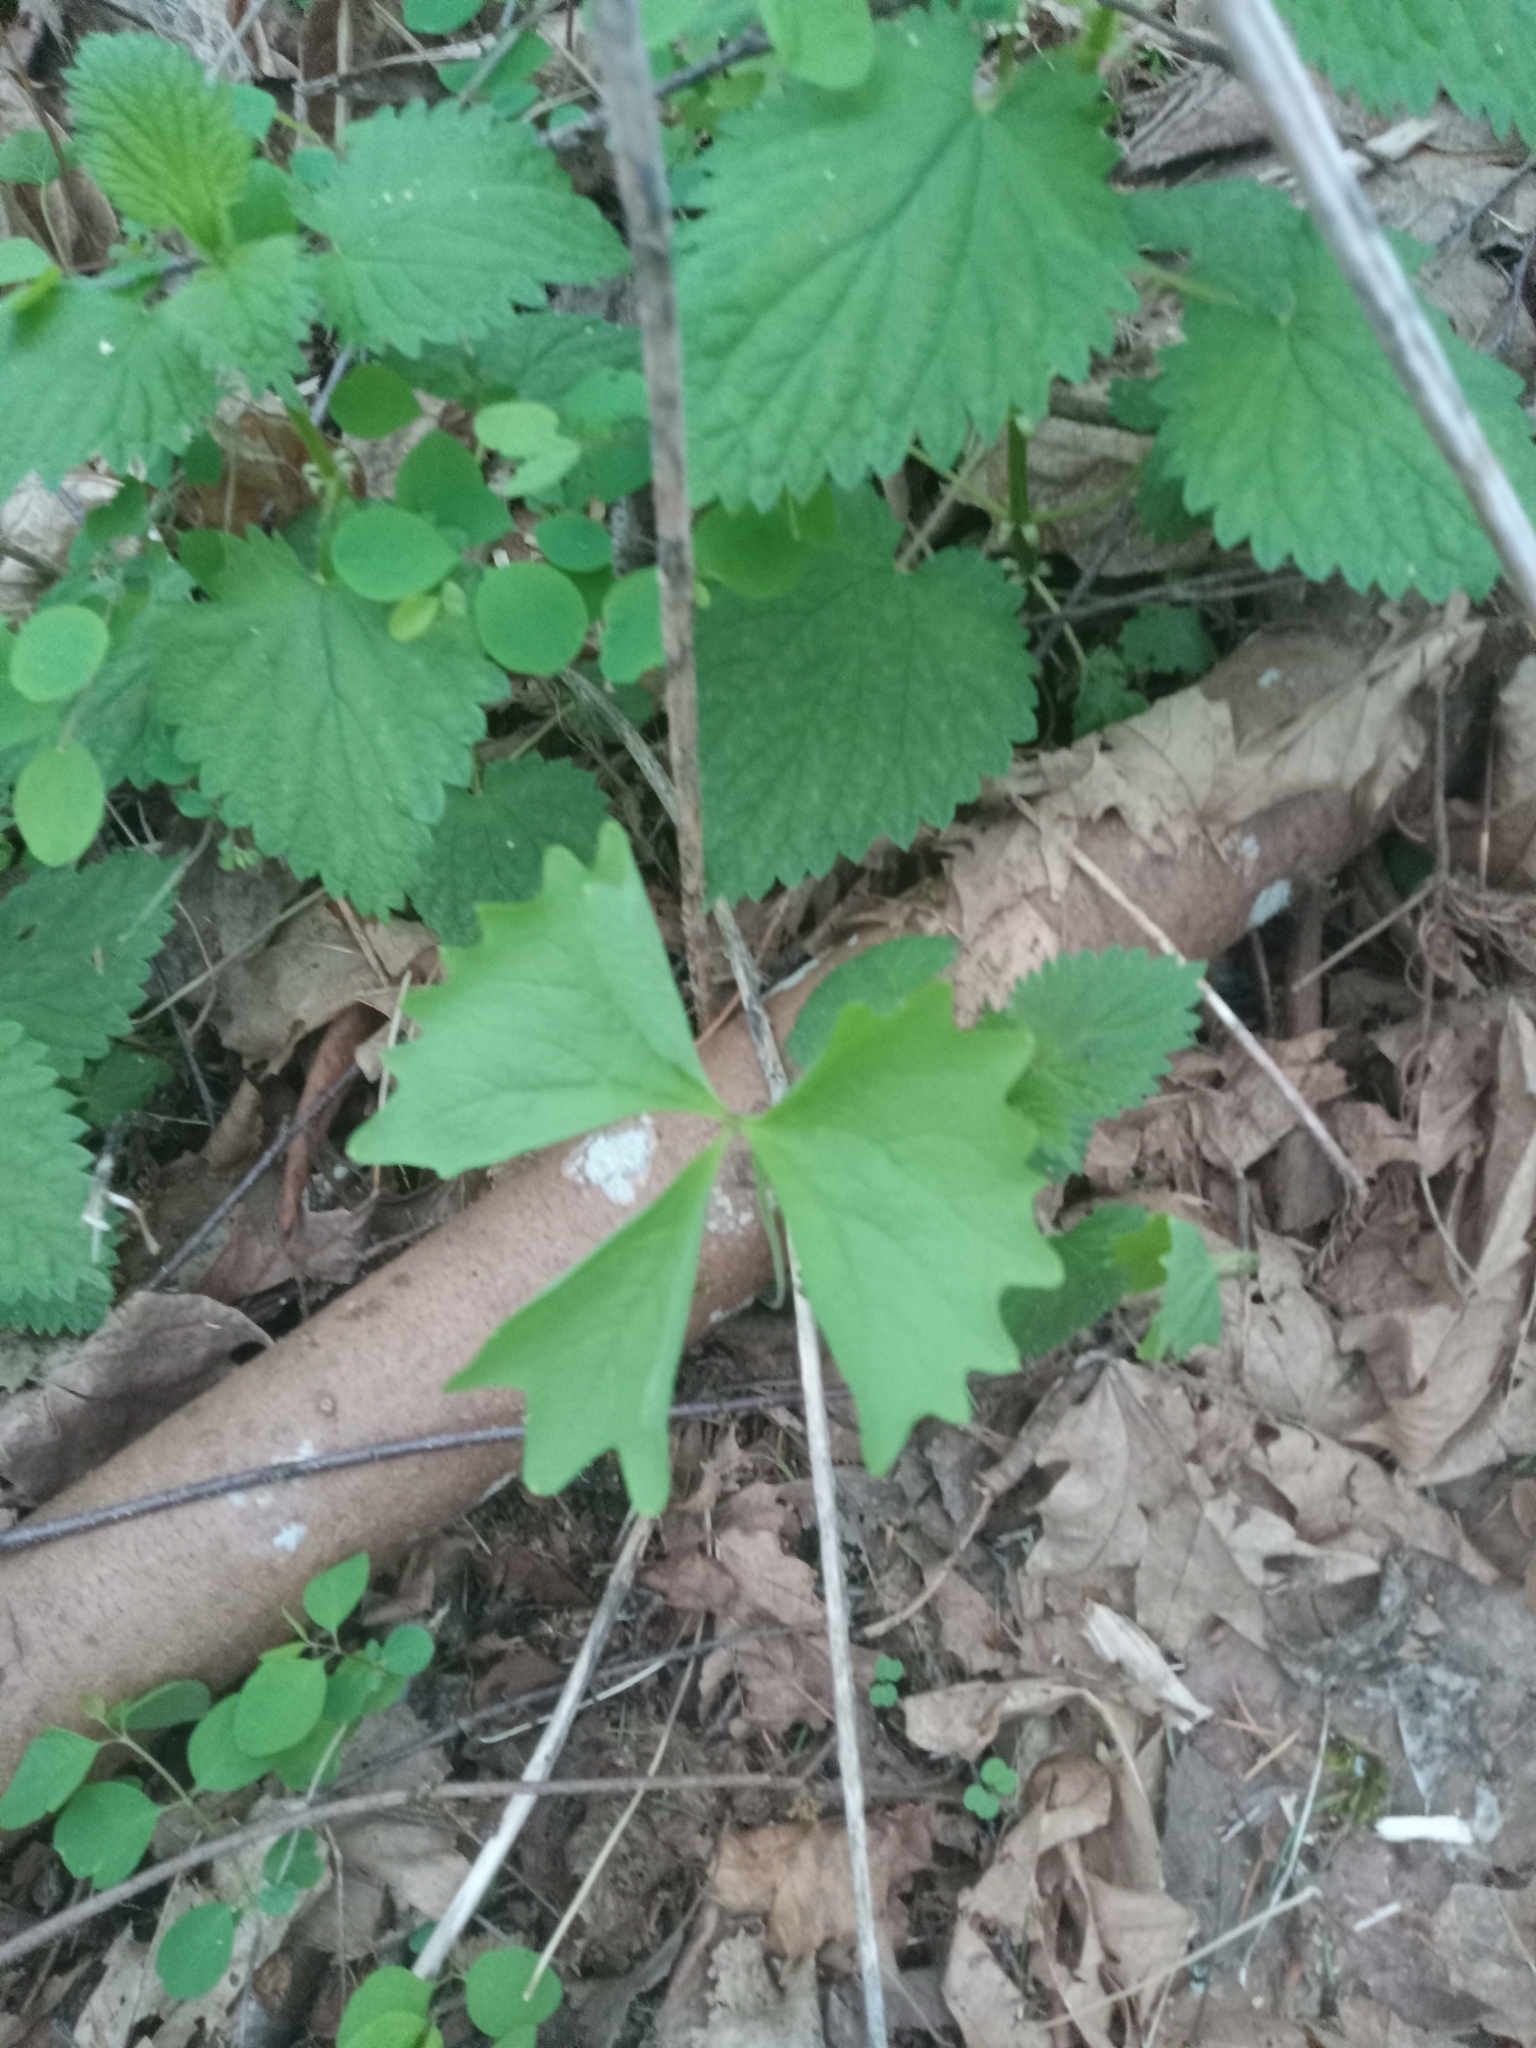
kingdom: Plantae
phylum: Tracheophyta
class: Magnoliopsida
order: Ranunculales
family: Berberidaceae
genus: Achlys
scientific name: Achlys triphylla
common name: Vanilla-leaf
